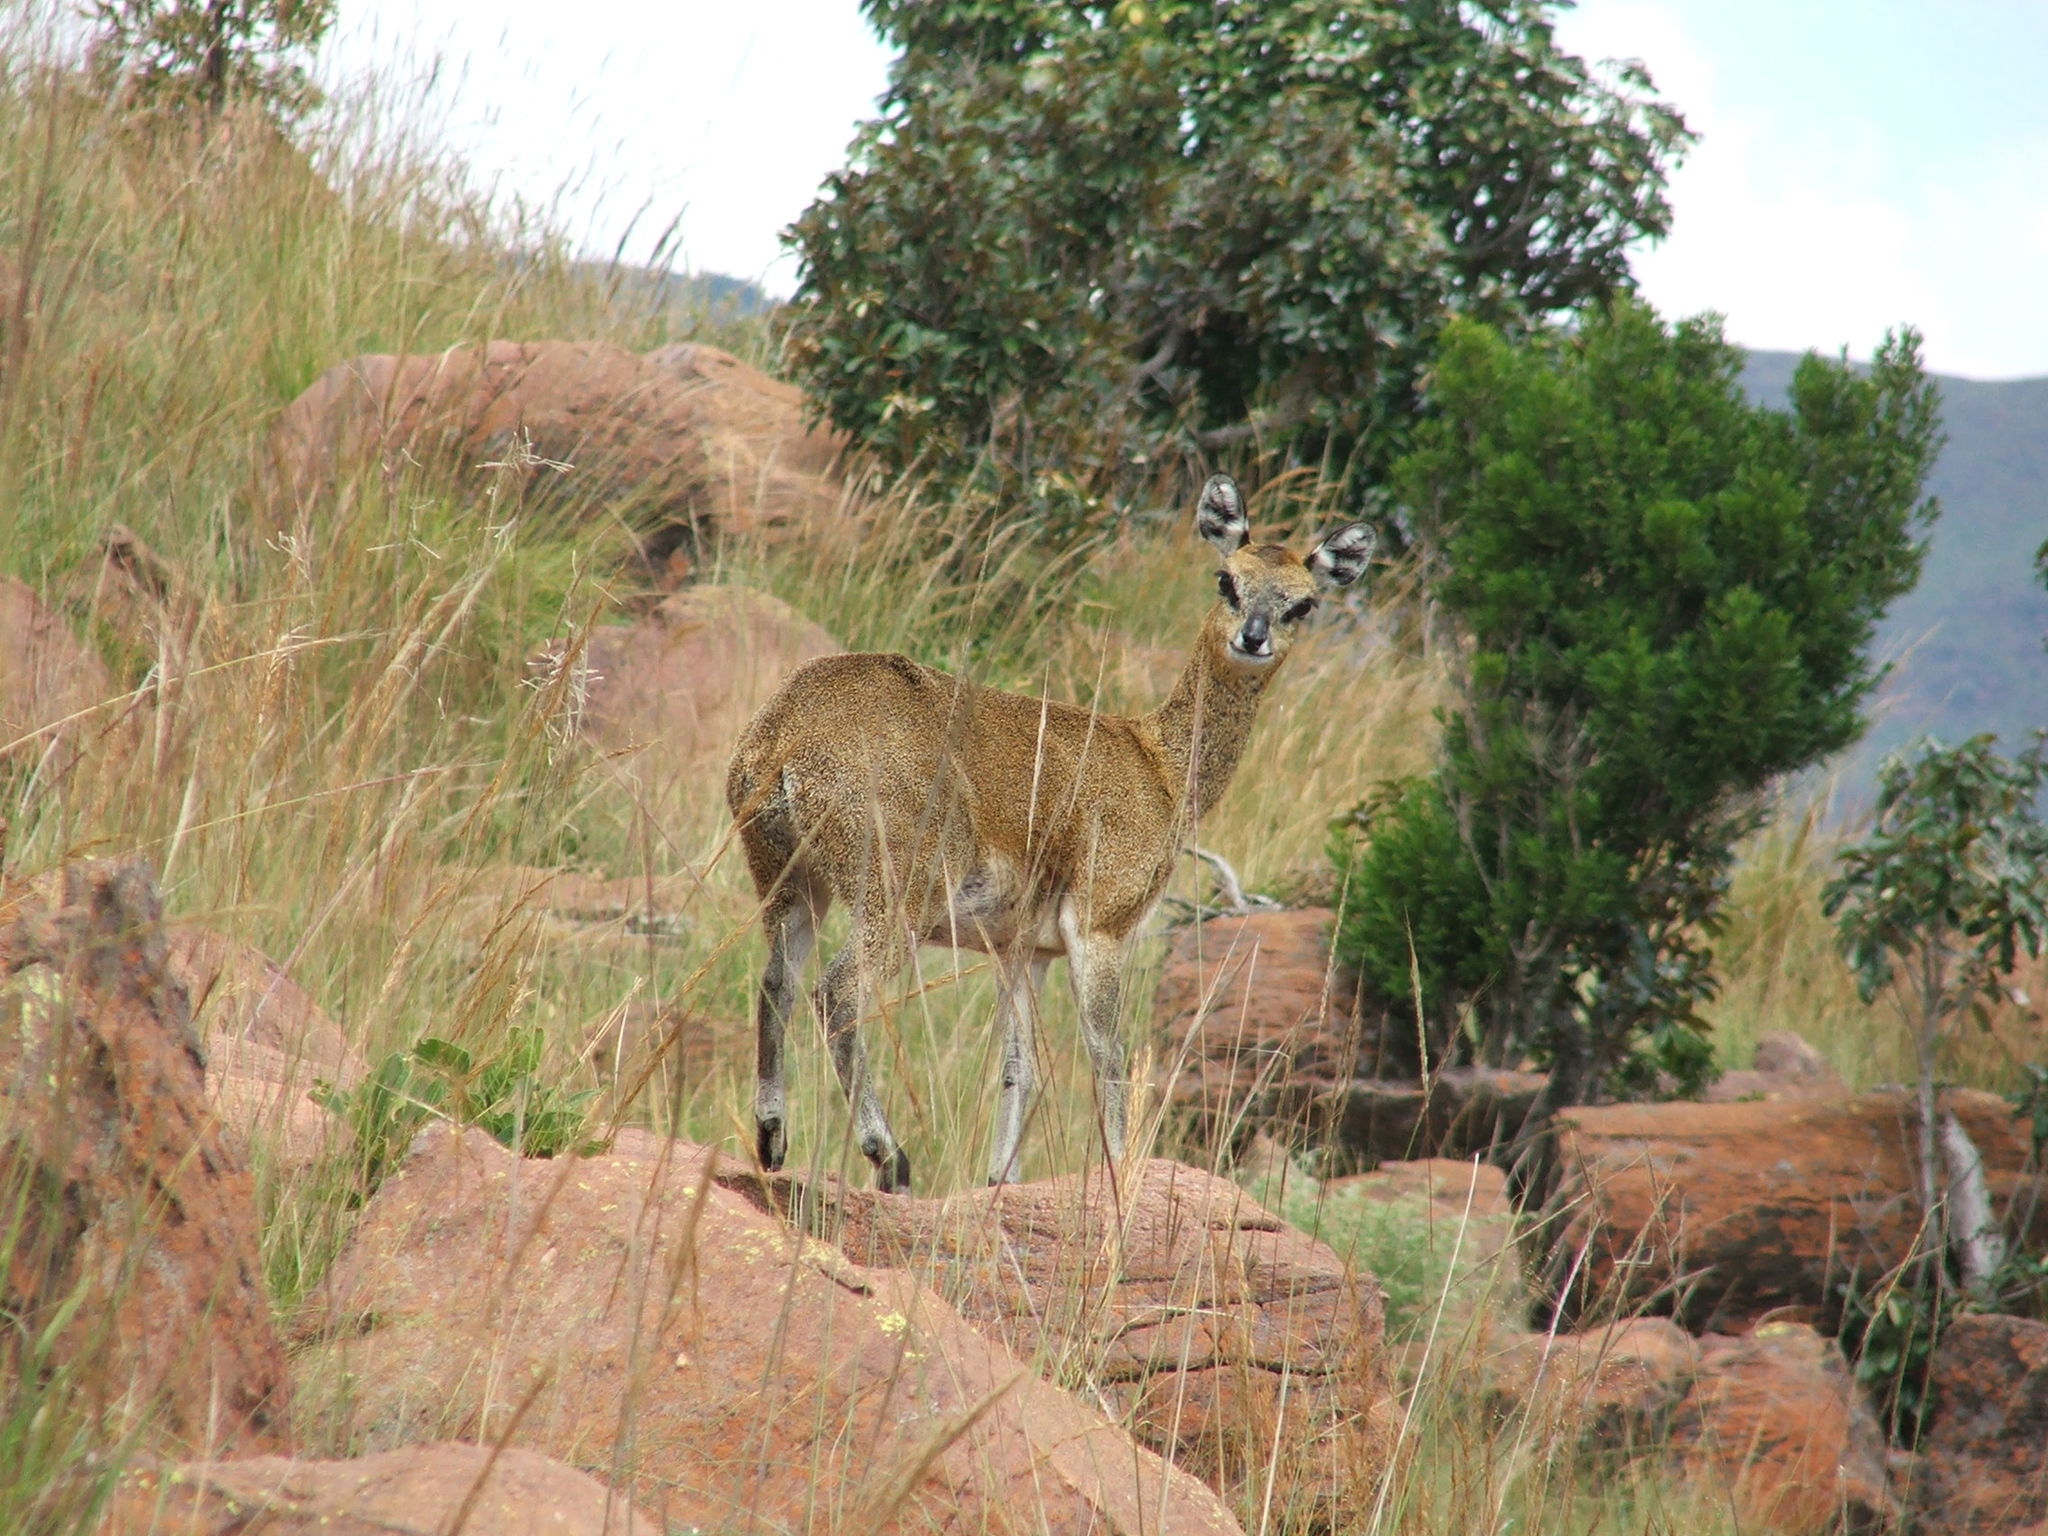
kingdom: Animalia
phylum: Chordata
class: Mammalia
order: Artiodactyla
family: Bovidae
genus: Oreotragus
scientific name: Oreotragus oreotragus
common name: Klipspringer
